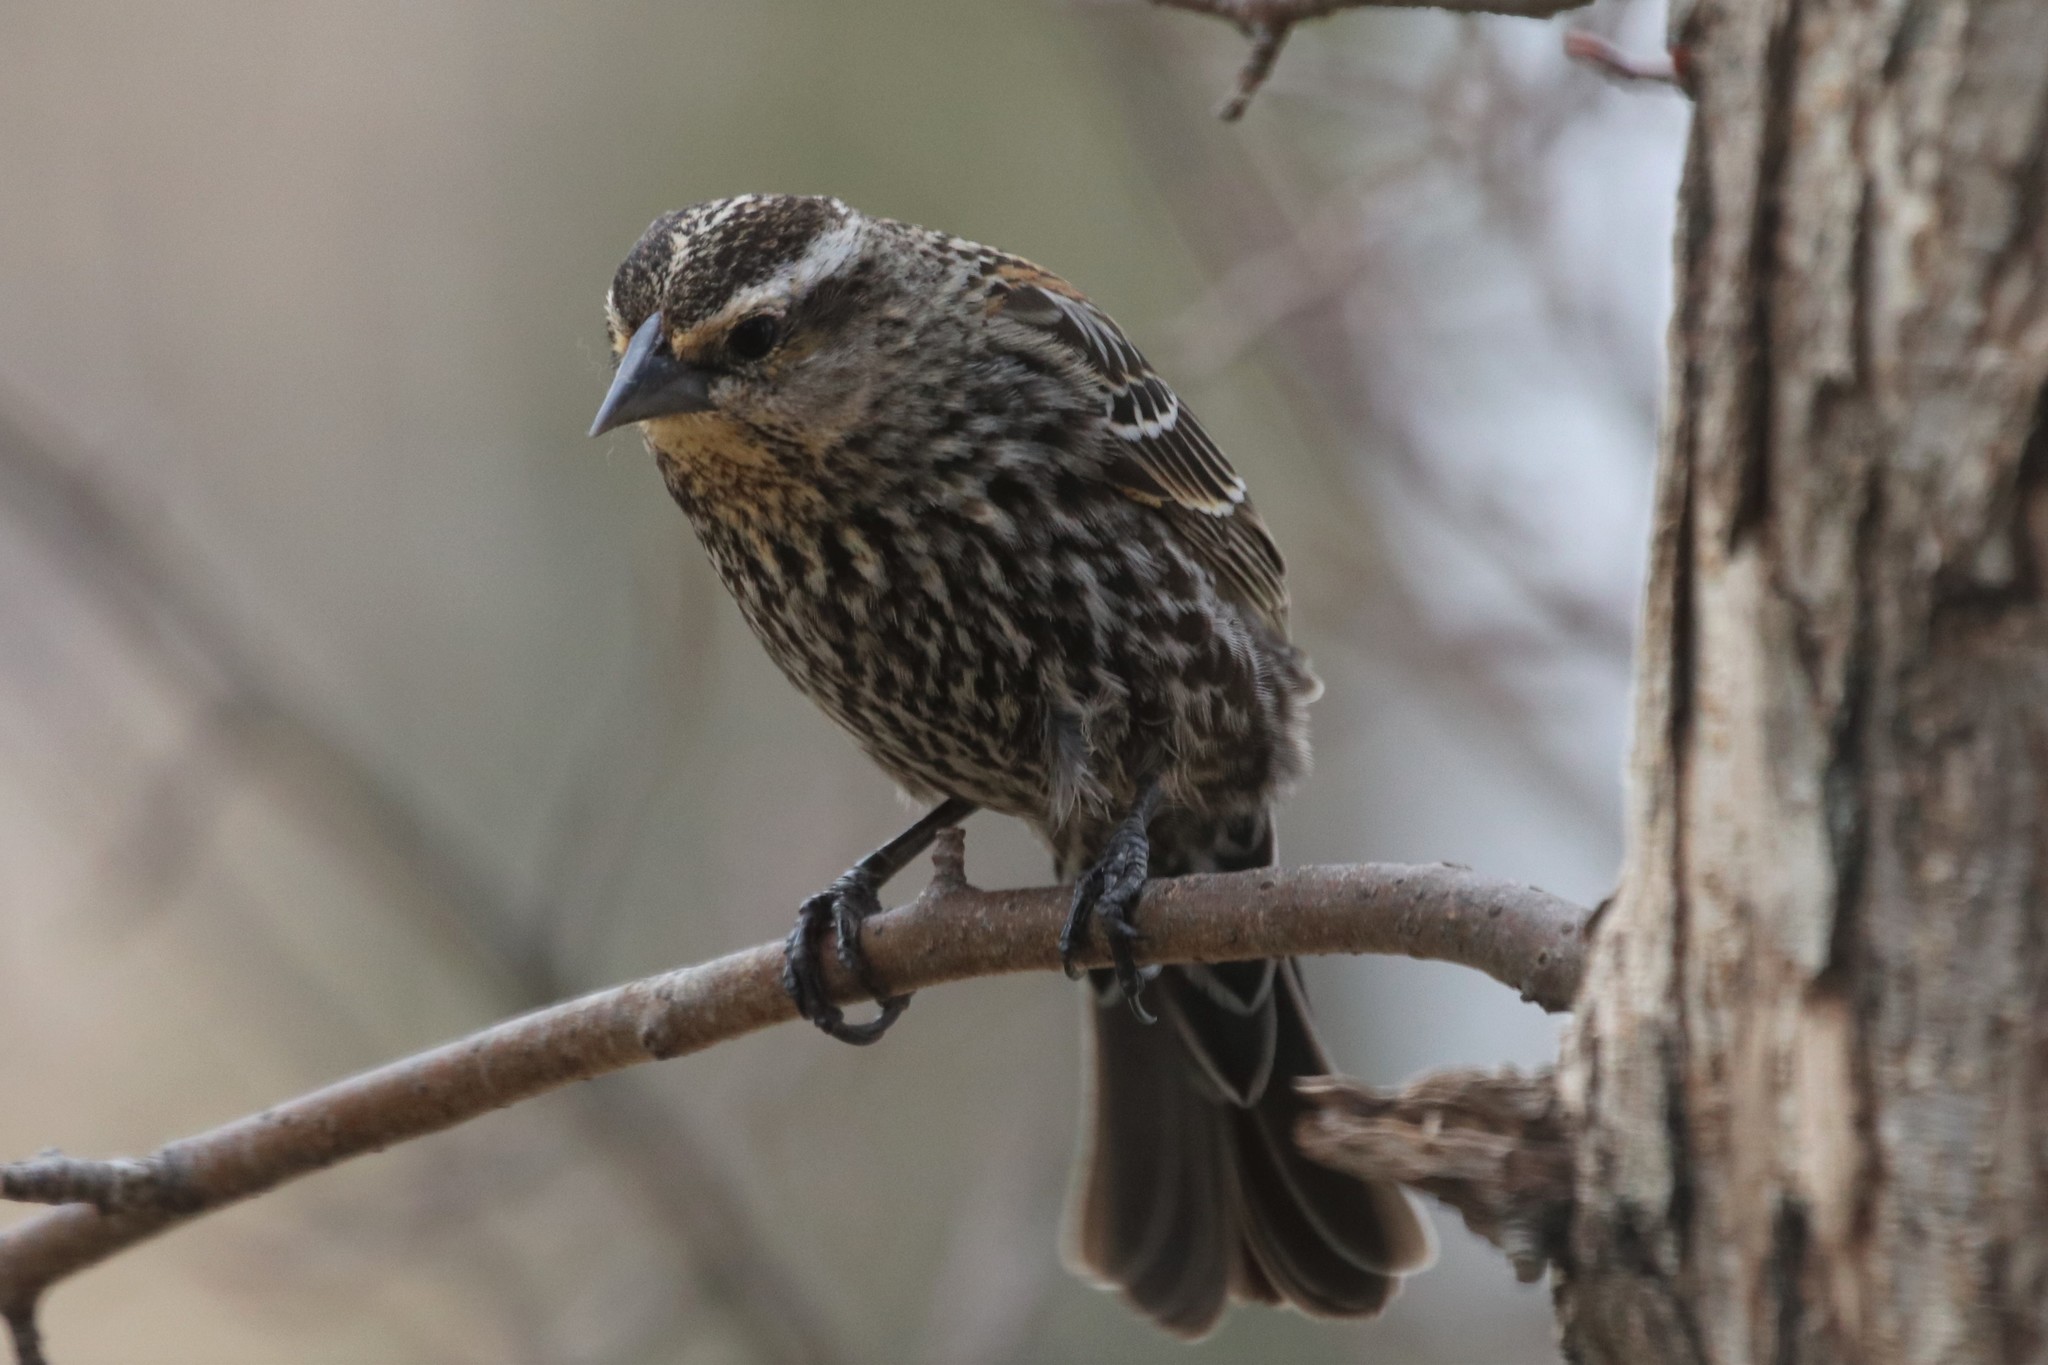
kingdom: Animalia
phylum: Chordata
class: Aves
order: Passeriformes
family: Icteridae
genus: Agelaius
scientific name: Agelaius phoeniceus
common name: Red-winged blackbird
